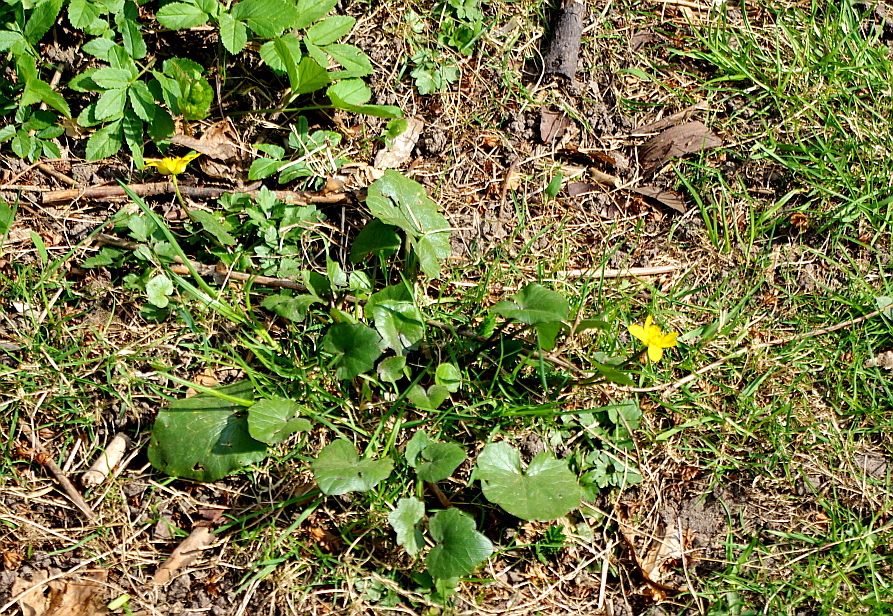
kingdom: Plantae
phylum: Tracheophyta
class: Magnoliopsida
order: Ranunculales
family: Ranunculaceae
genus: Ficaria
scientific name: Ficaria verna
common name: Lesser celandine
